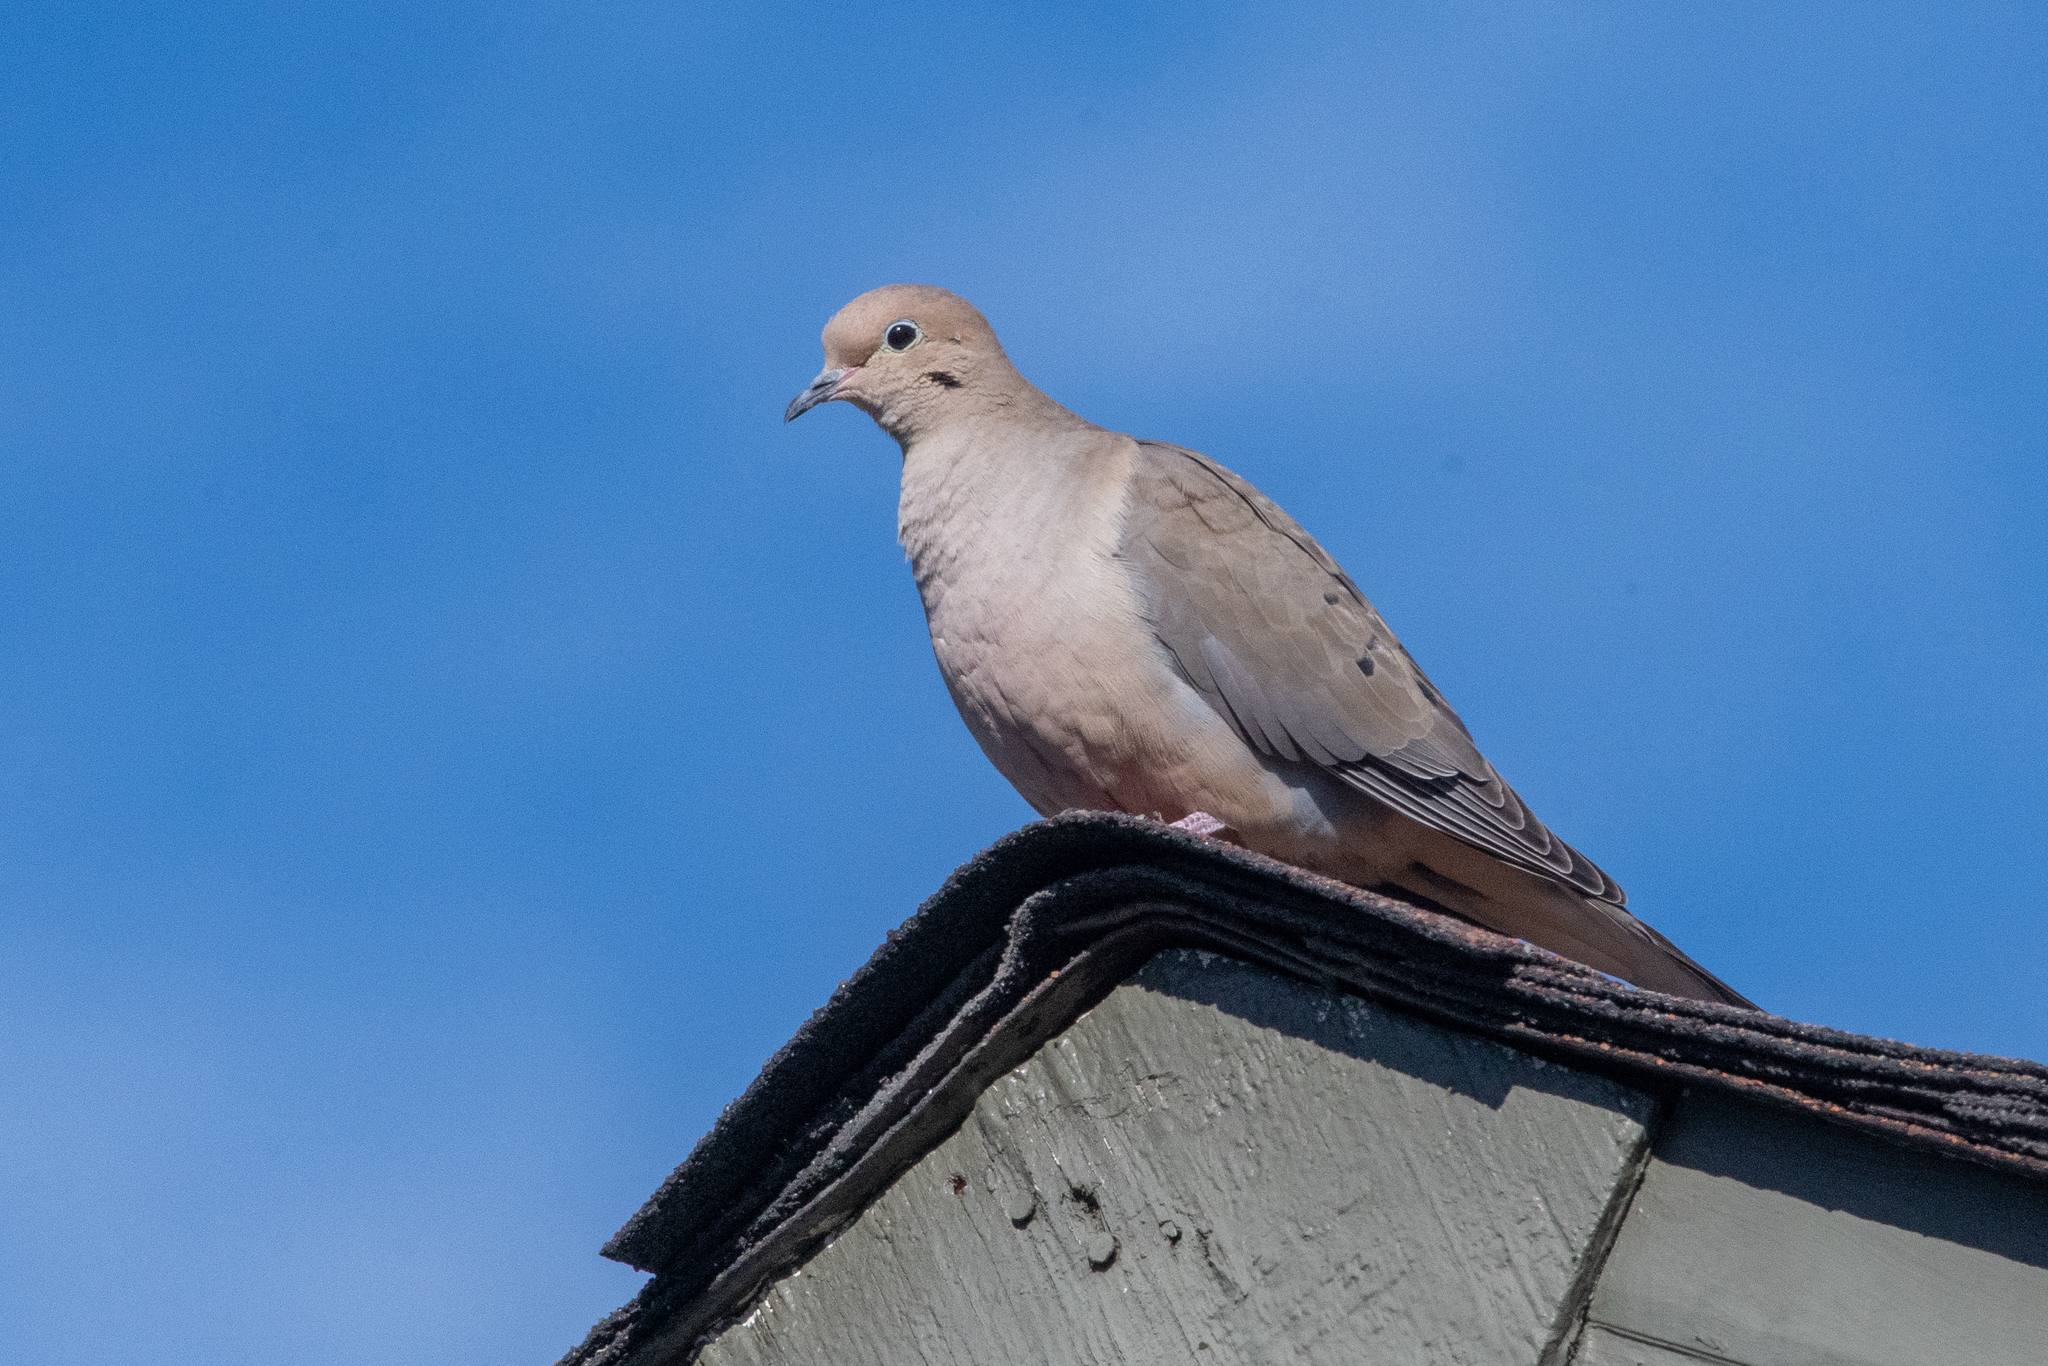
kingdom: Animalia
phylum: Chordata
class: Aves
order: Columbiformes
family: Columbidae
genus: Zenaida
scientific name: Zenaida macroura
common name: Mourning dove
